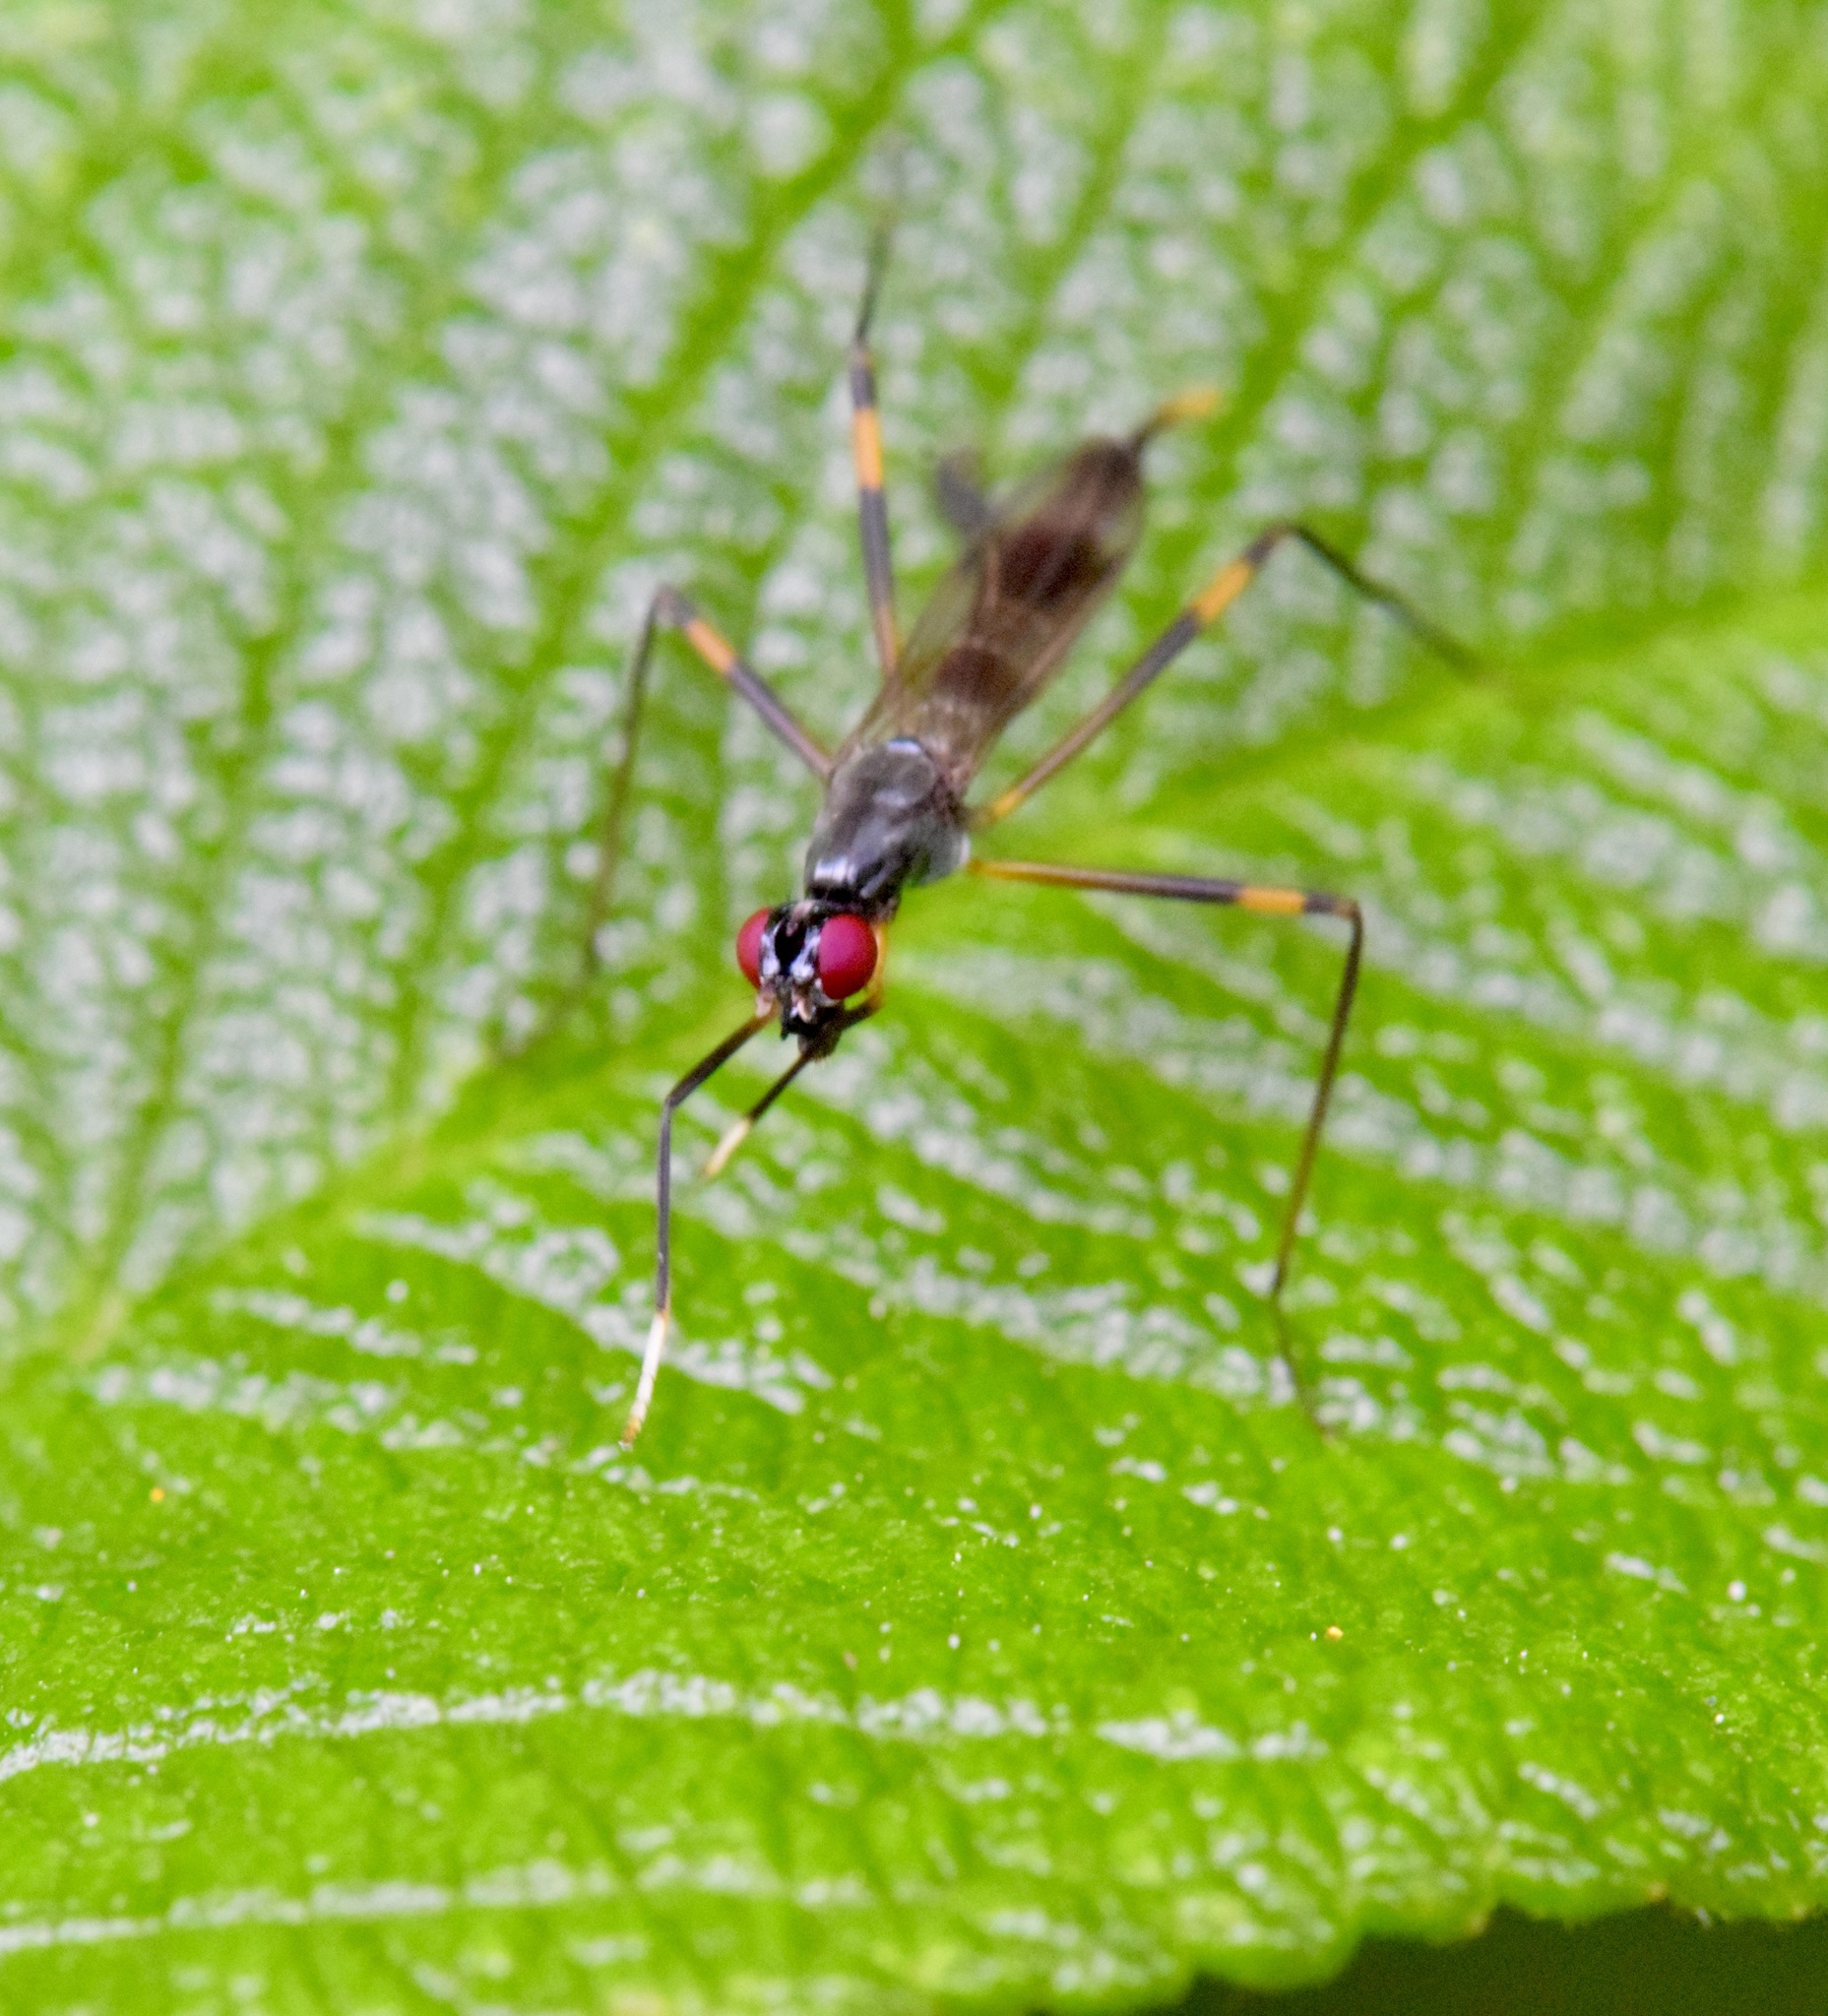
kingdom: Animalia
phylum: Arthropoda
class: Insecta
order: Diptera
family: Micropezidae
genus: Rainieria
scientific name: Rainieria antennaepes
